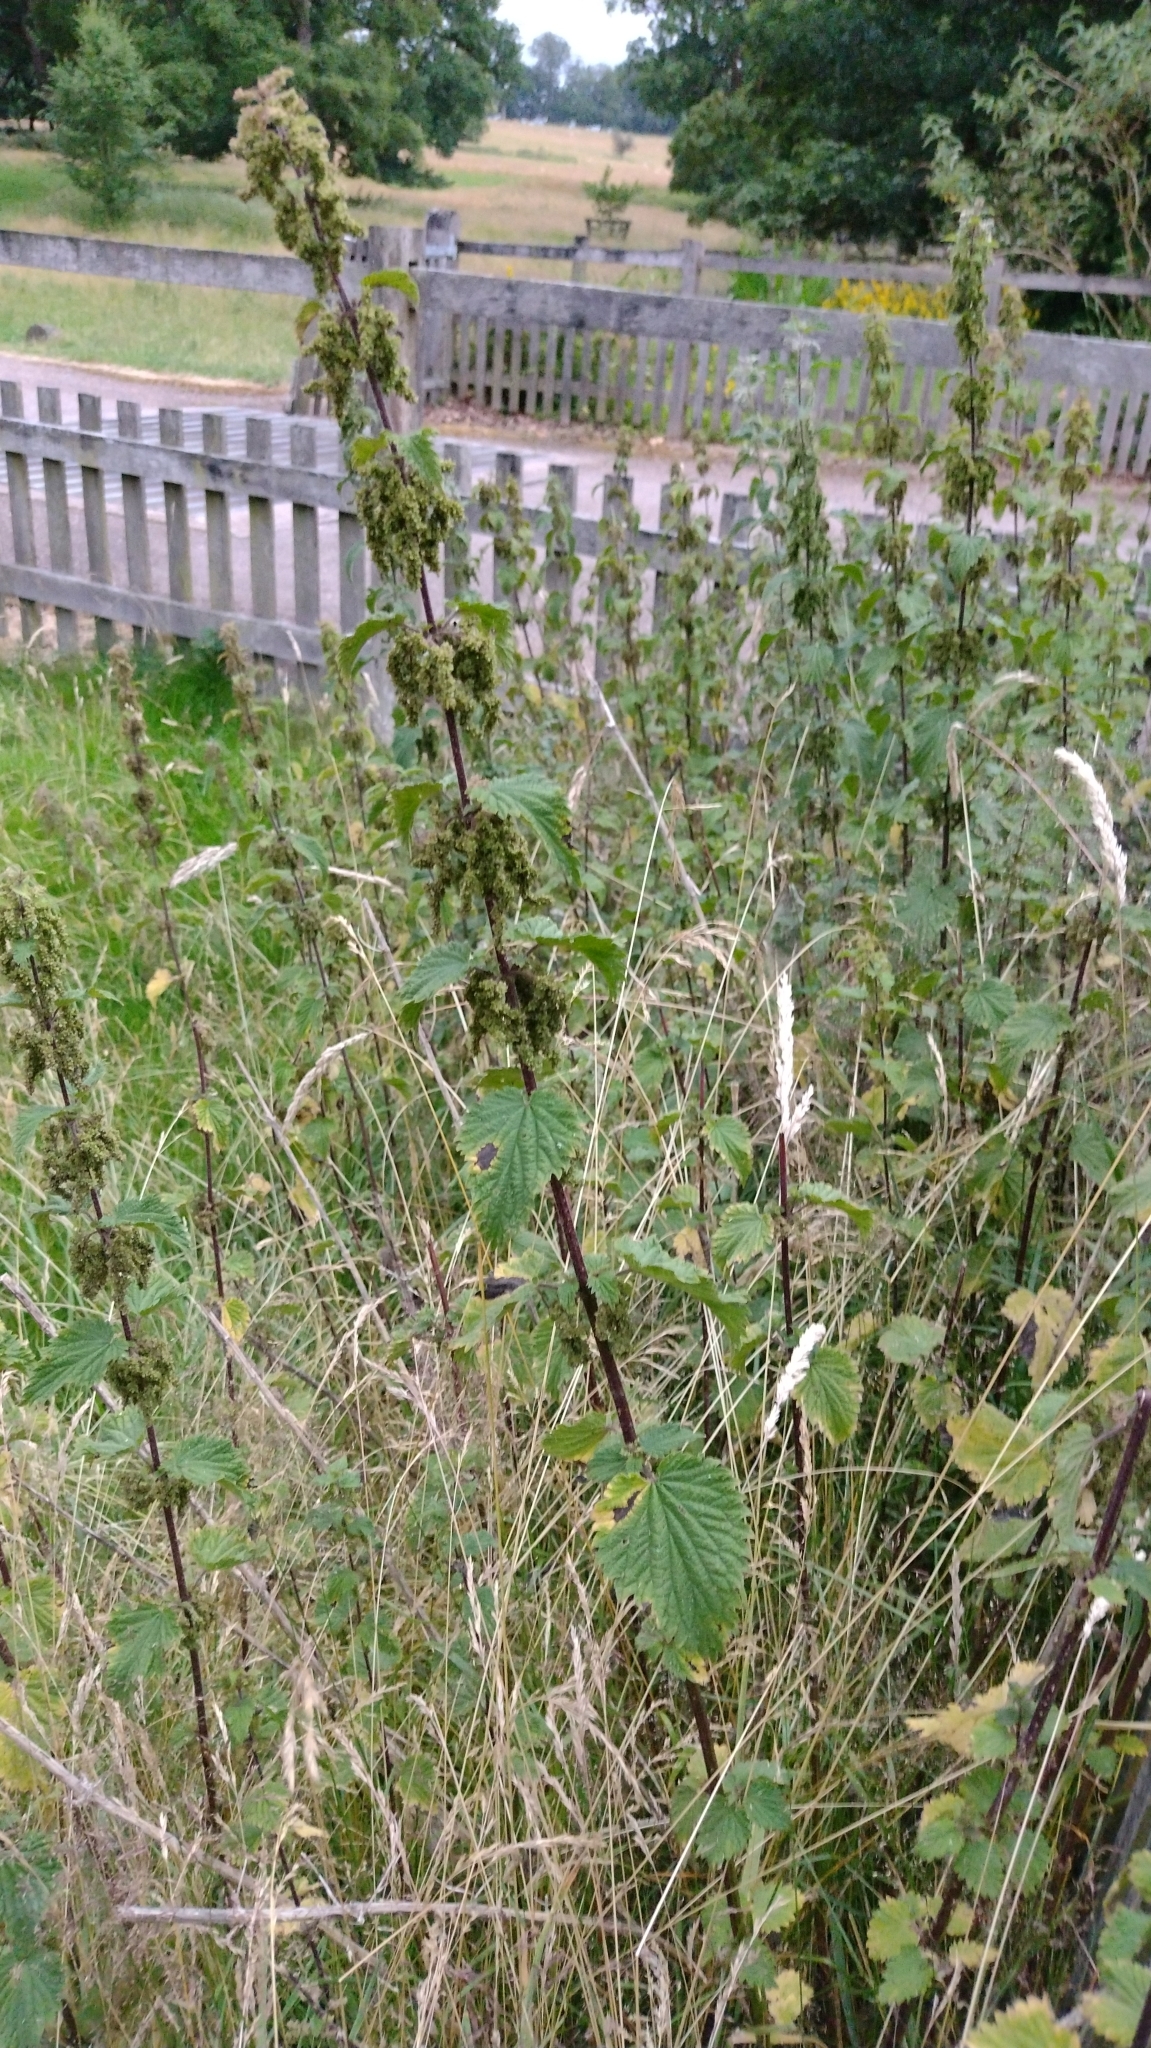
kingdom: Plantae
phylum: Tracheophyta
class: Magnoliopsida
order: Rosales
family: Urticaceae
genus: Urtica
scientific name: Urtica dioica
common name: Common nettle
